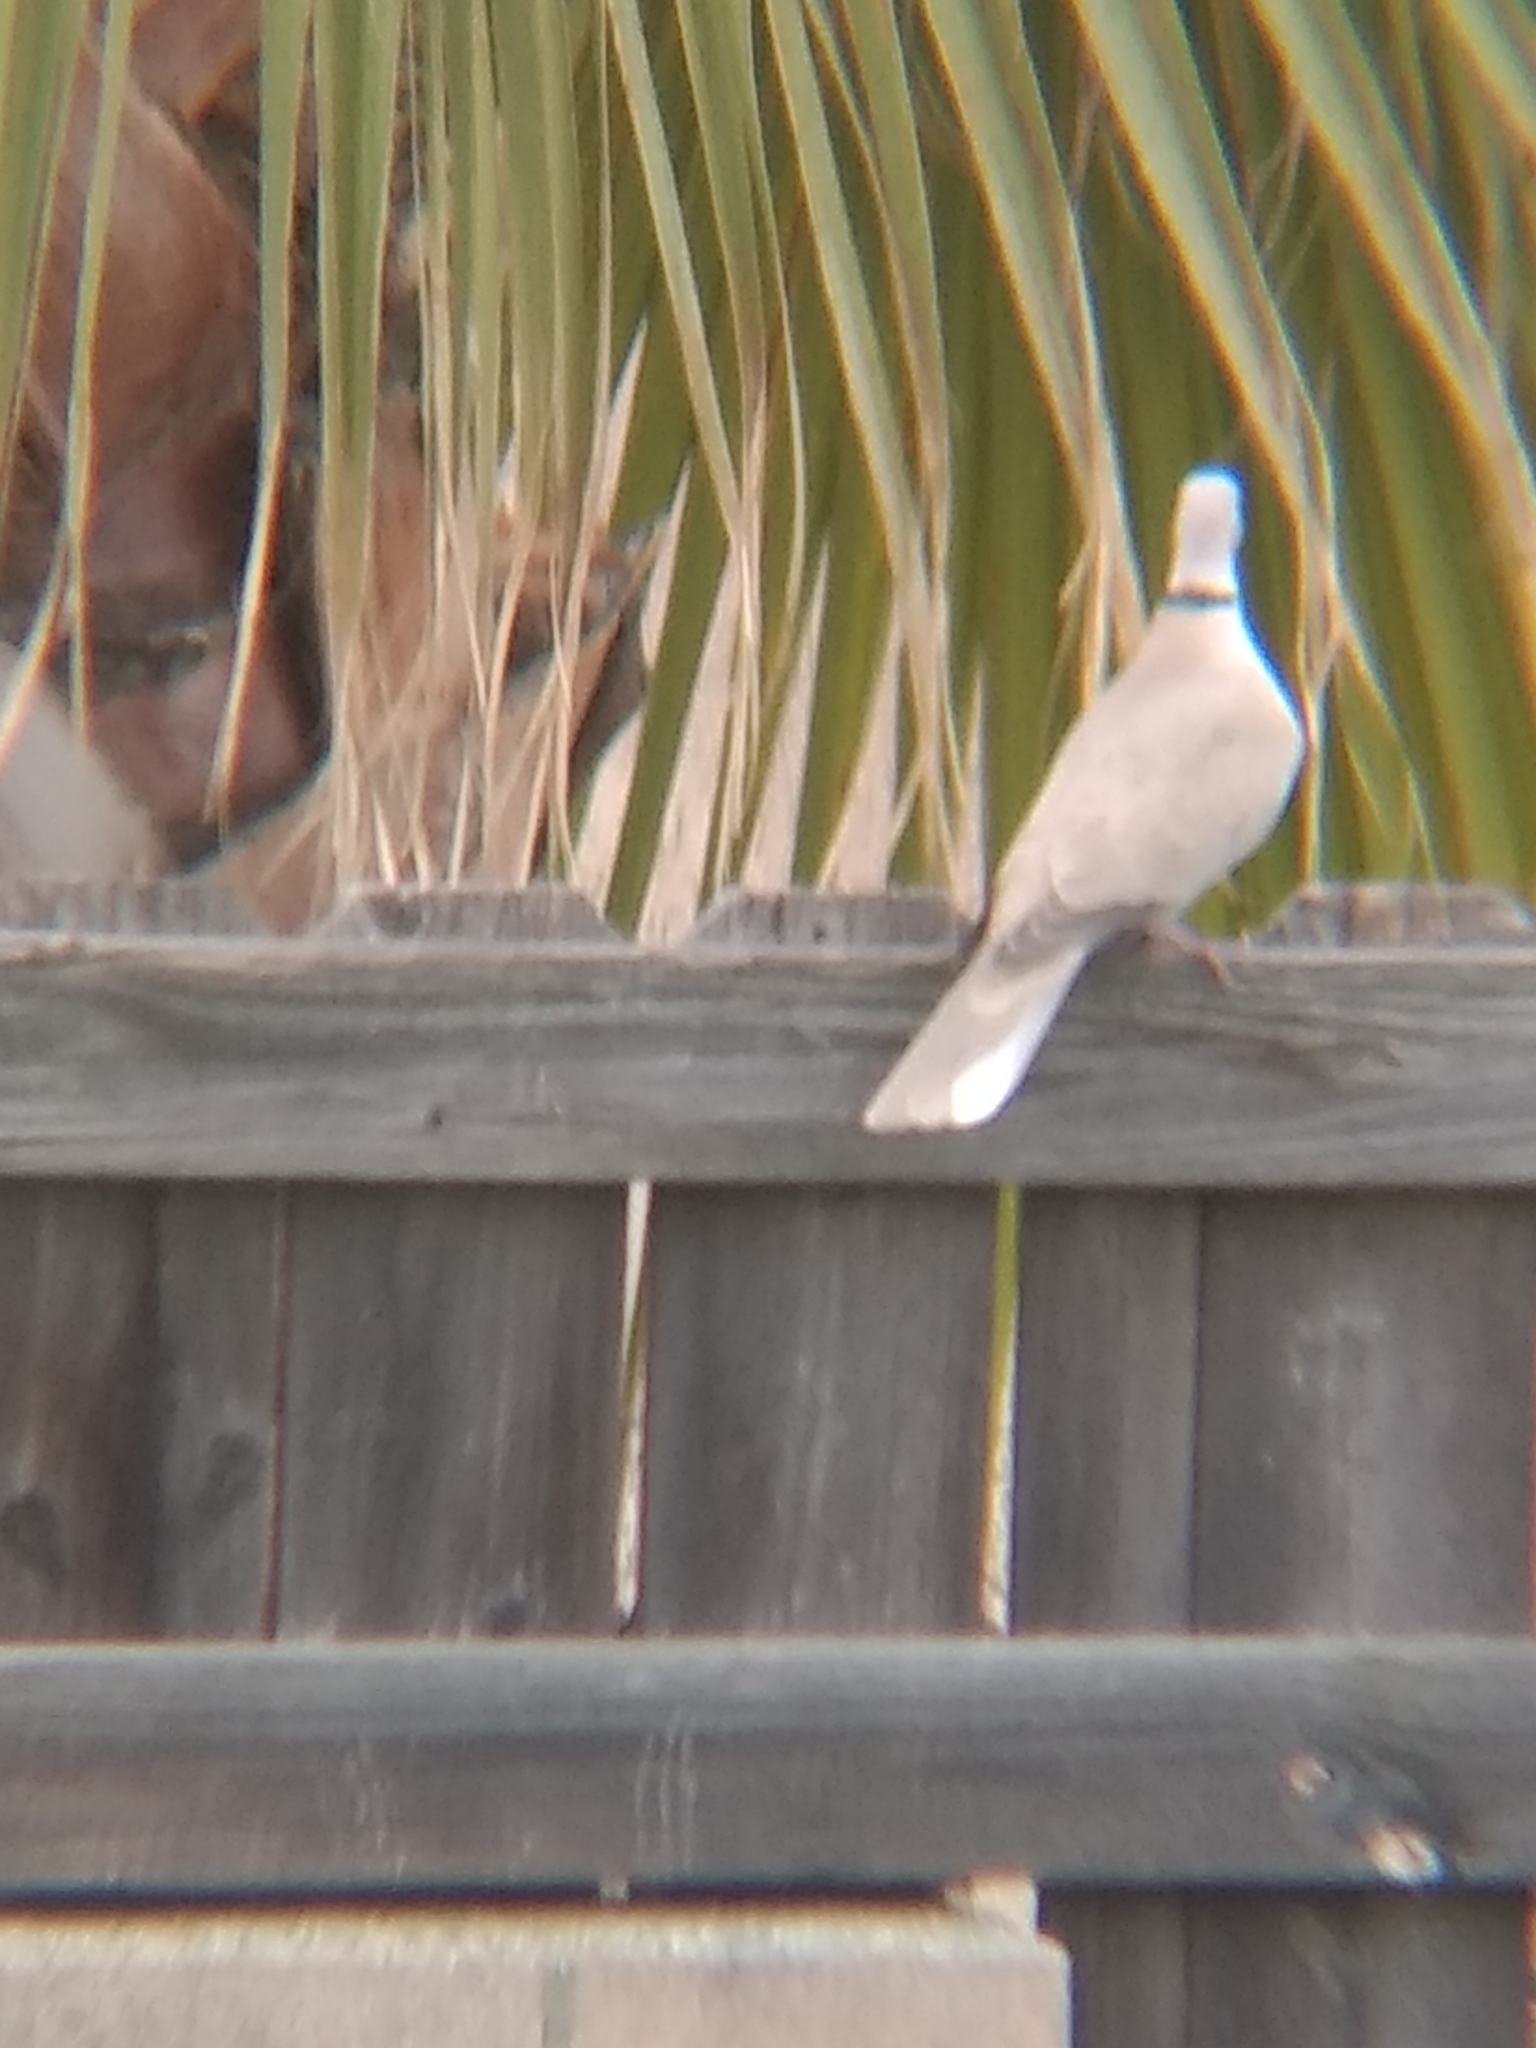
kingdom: Animalia
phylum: Chordata
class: Aves
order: Columbiformes
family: Columbidae
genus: Streptopelia
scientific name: Streptopelia decaocto
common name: Eurasian collared dove
